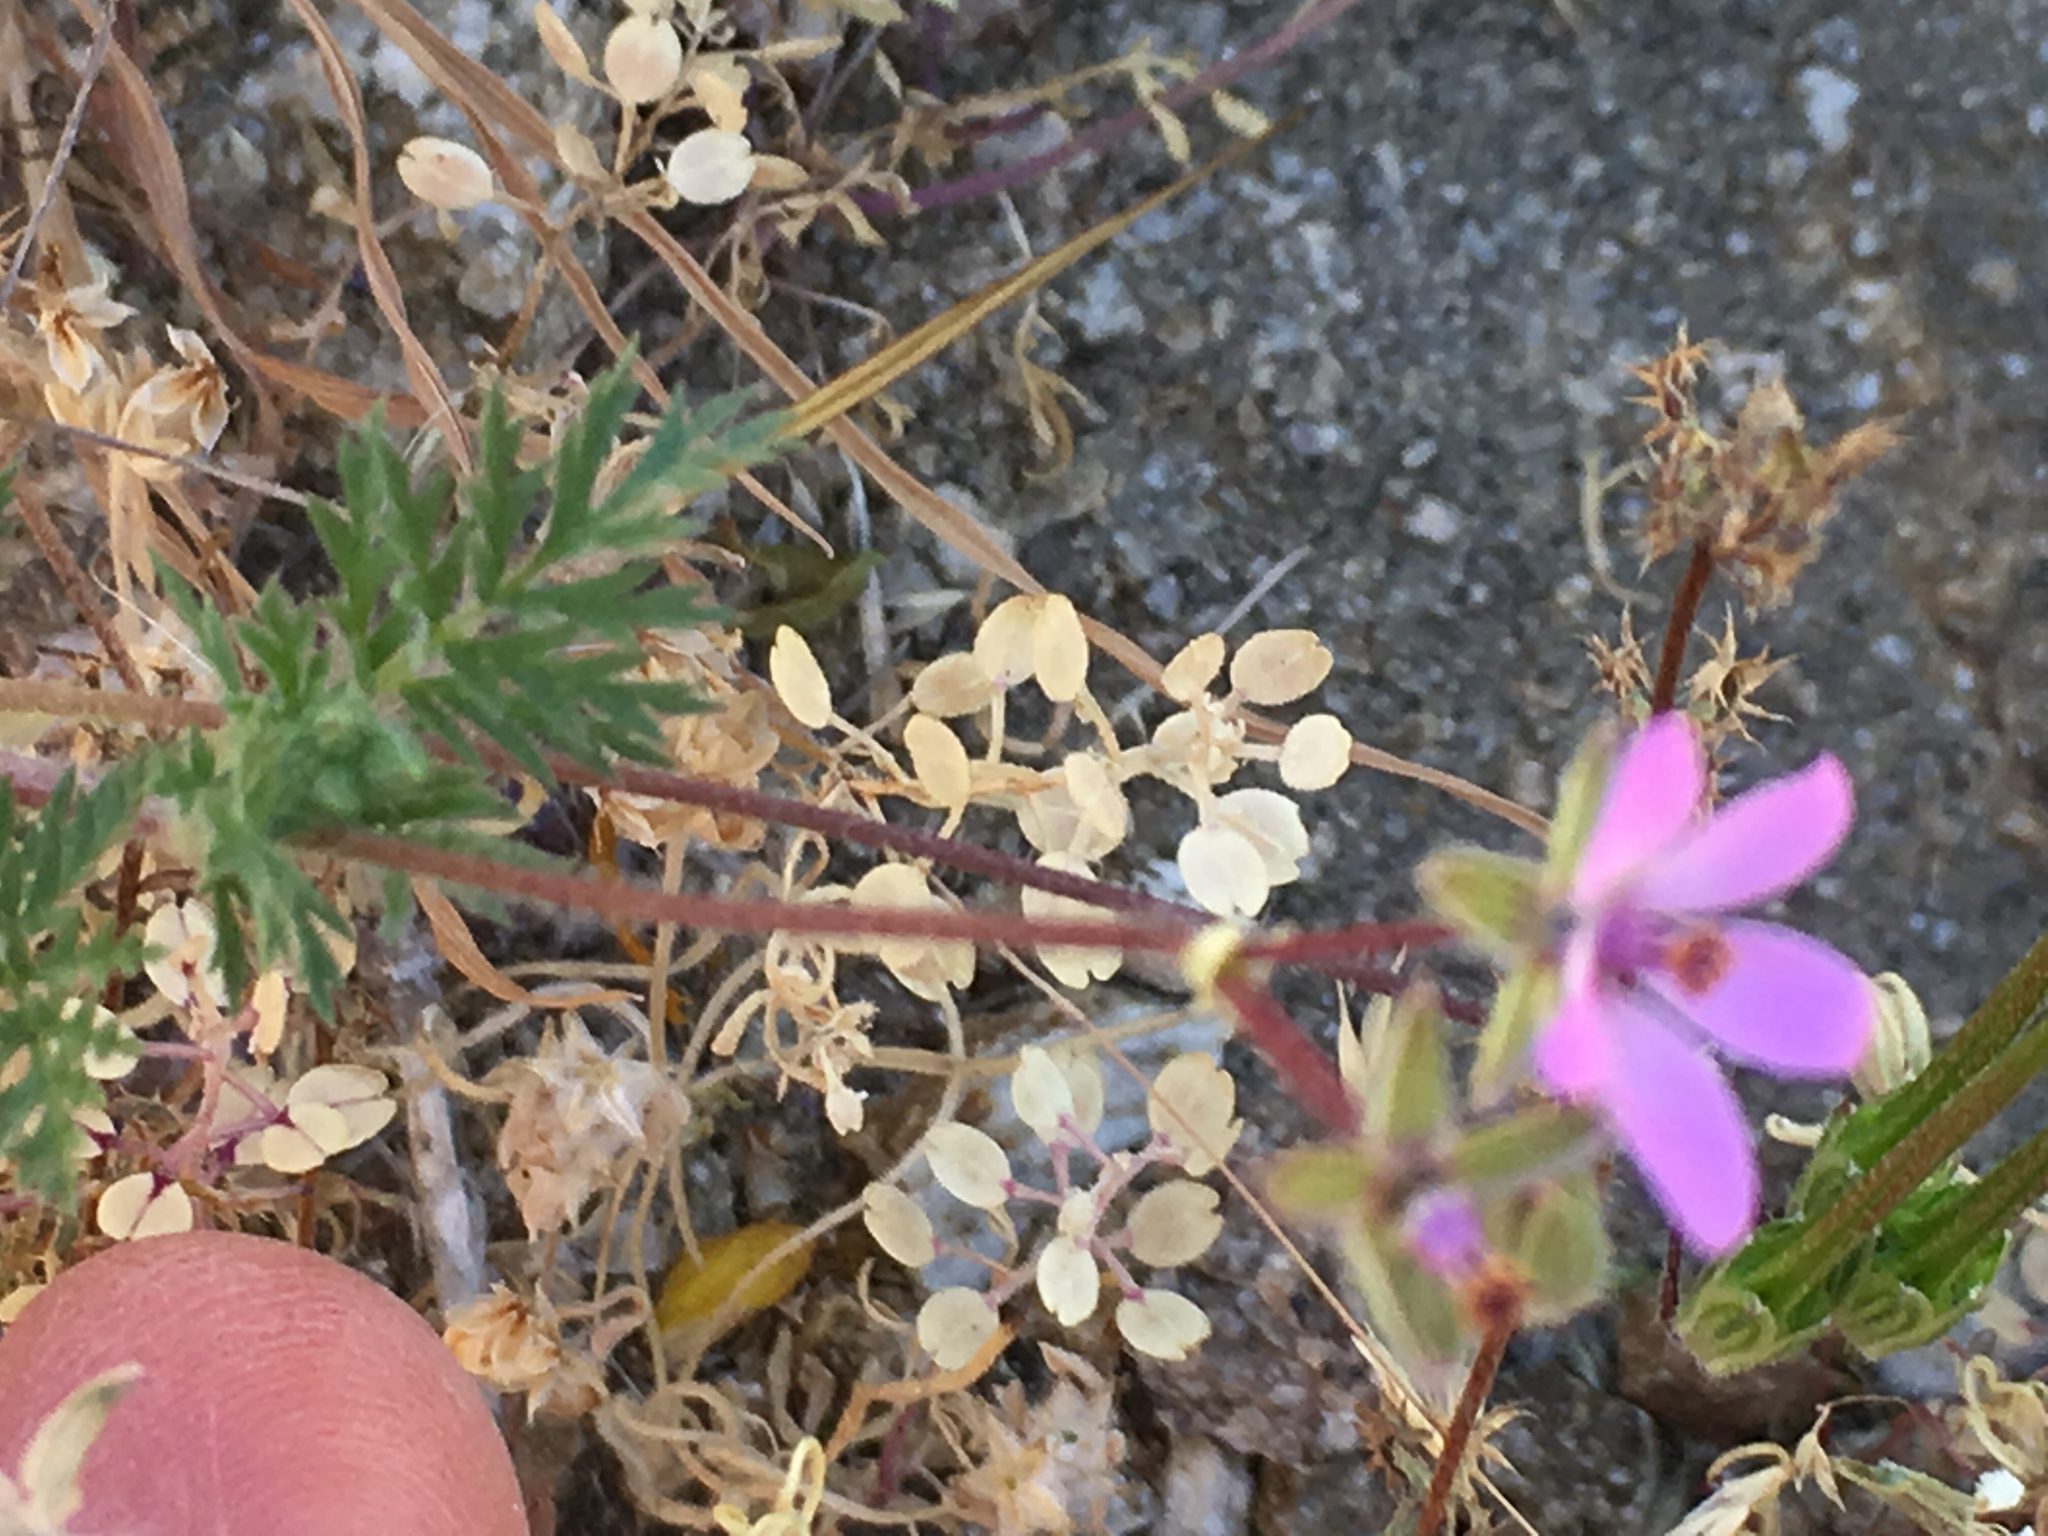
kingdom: Plantae
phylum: Tracheophyta
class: Magnoliopsida
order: Geraniales
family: Geraniaceae
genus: Erodium
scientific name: Erodium cicutarium
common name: Common stork's-bill
